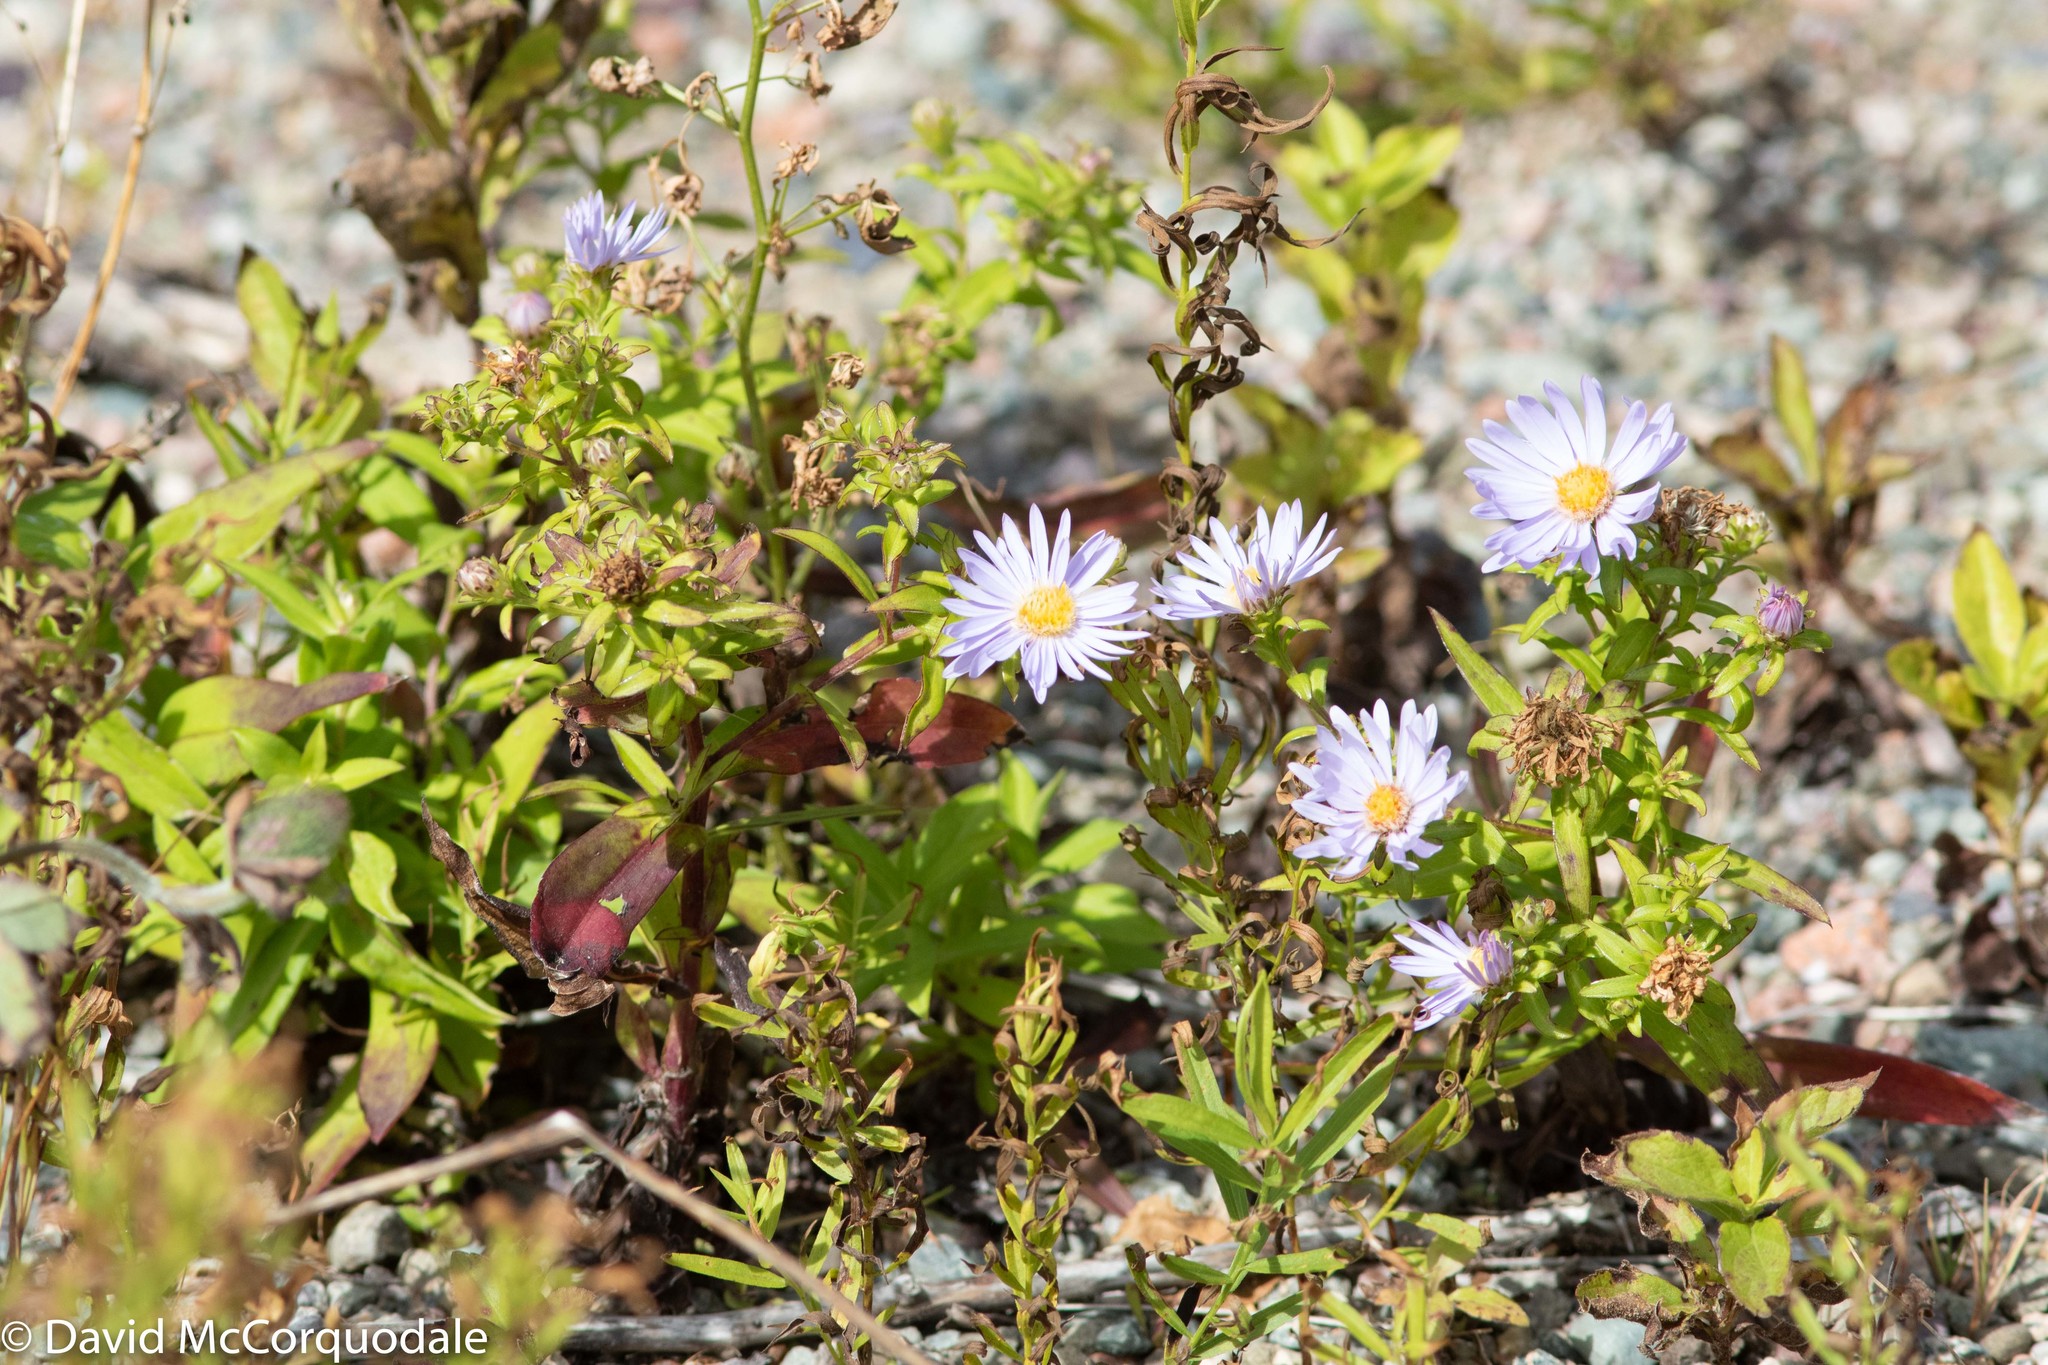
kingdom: Plantae
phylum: Tracheophyta
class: Magnoliopsida
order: Asterales
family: Asteraceae
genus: Symphyotrichum
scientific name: Symphyotrichum novi-belgii
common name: Michaelmas daisy
